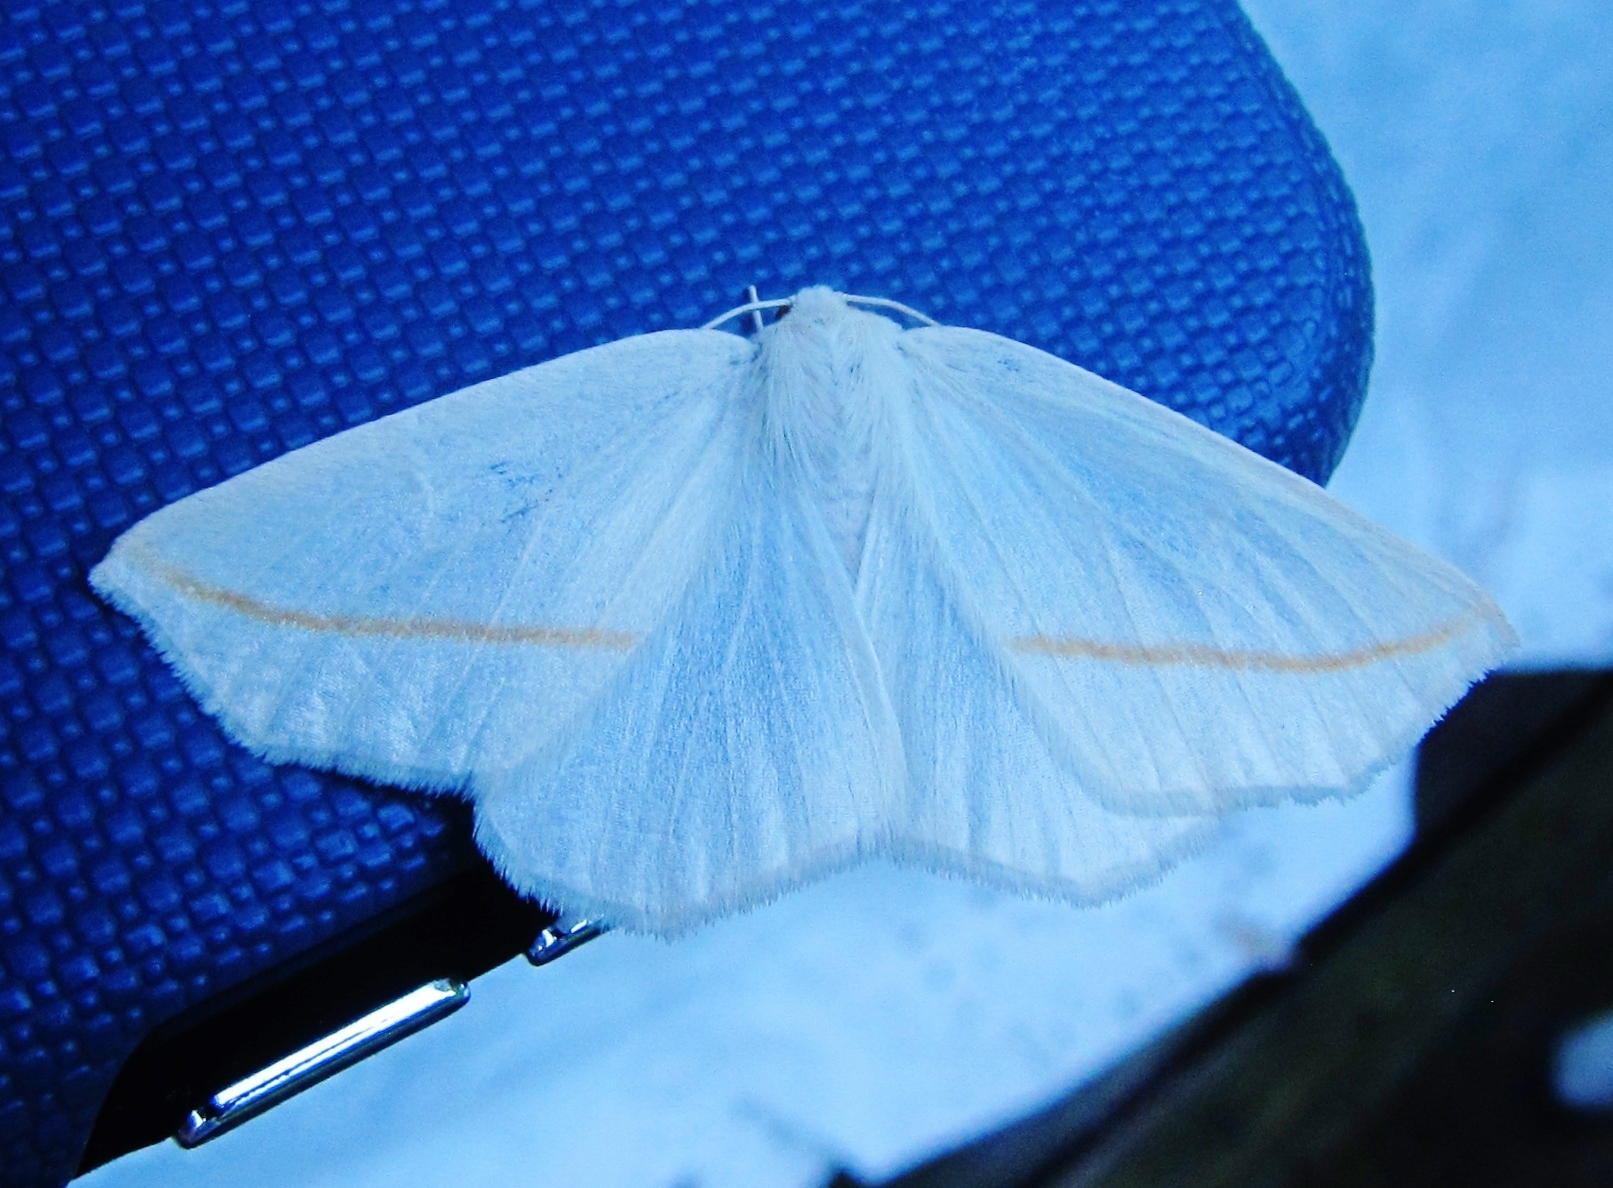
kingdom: Animalia
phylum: Arthropoda
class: Insecta
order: Lepidoptera
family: Geometridae
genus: Tetracis
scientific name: Tetracis cachexiata
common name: White slant-line
